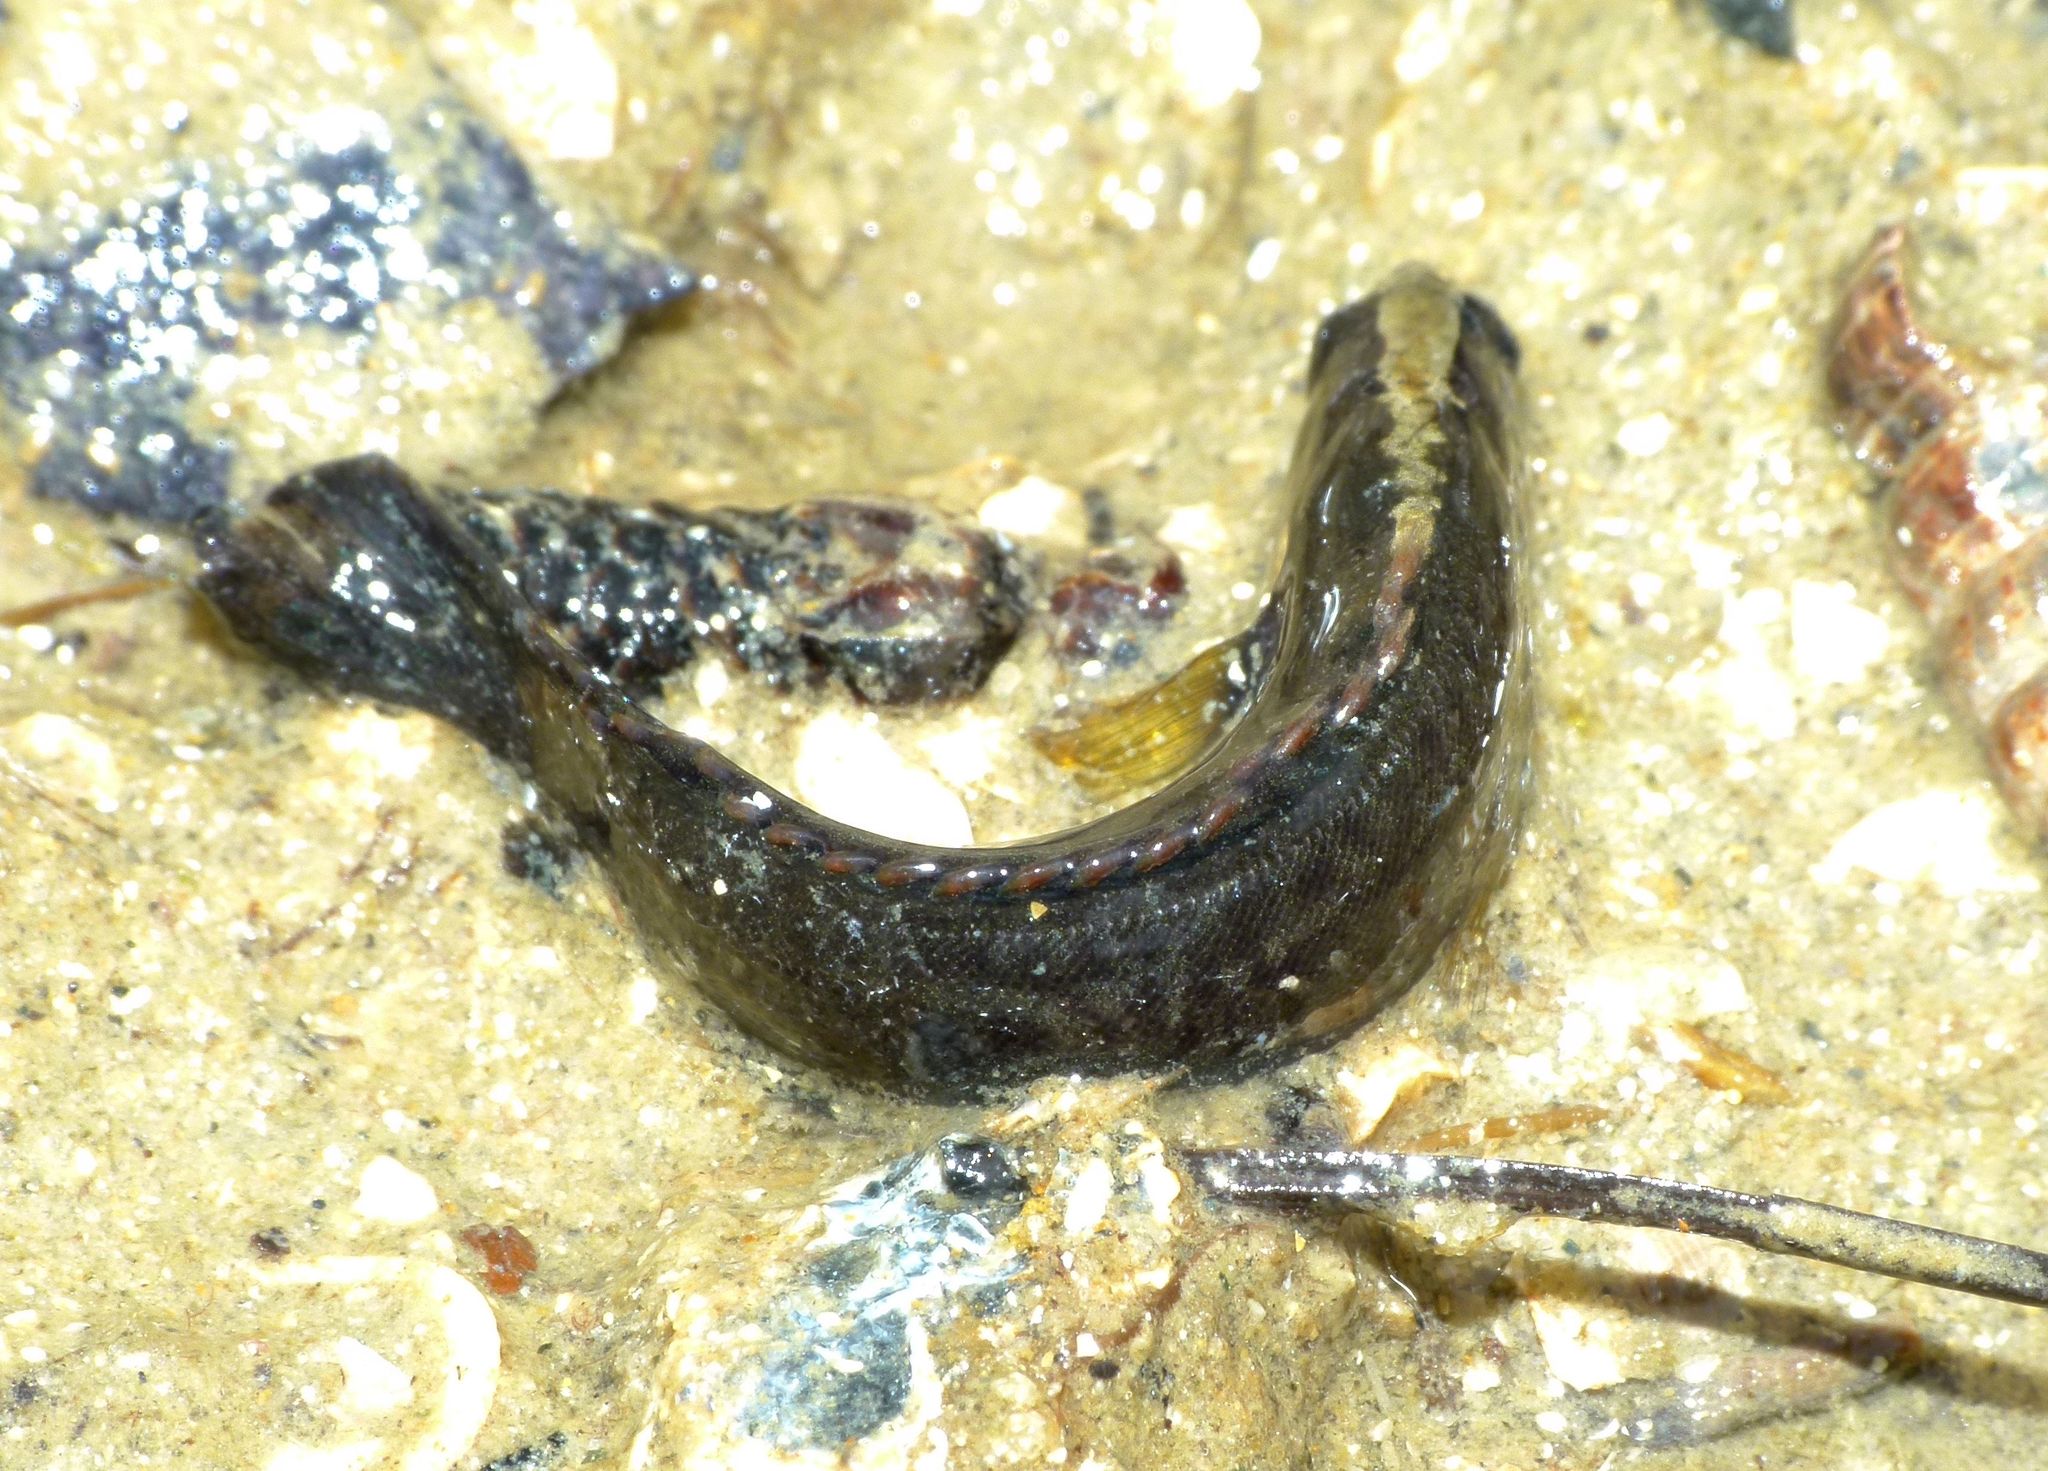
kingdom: Animalia
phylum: Chordata
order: Perciformes
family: Plesiopidae
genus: Acanthoclinus
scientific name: Acanthoclinus fuscus
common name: Olive rockfish
